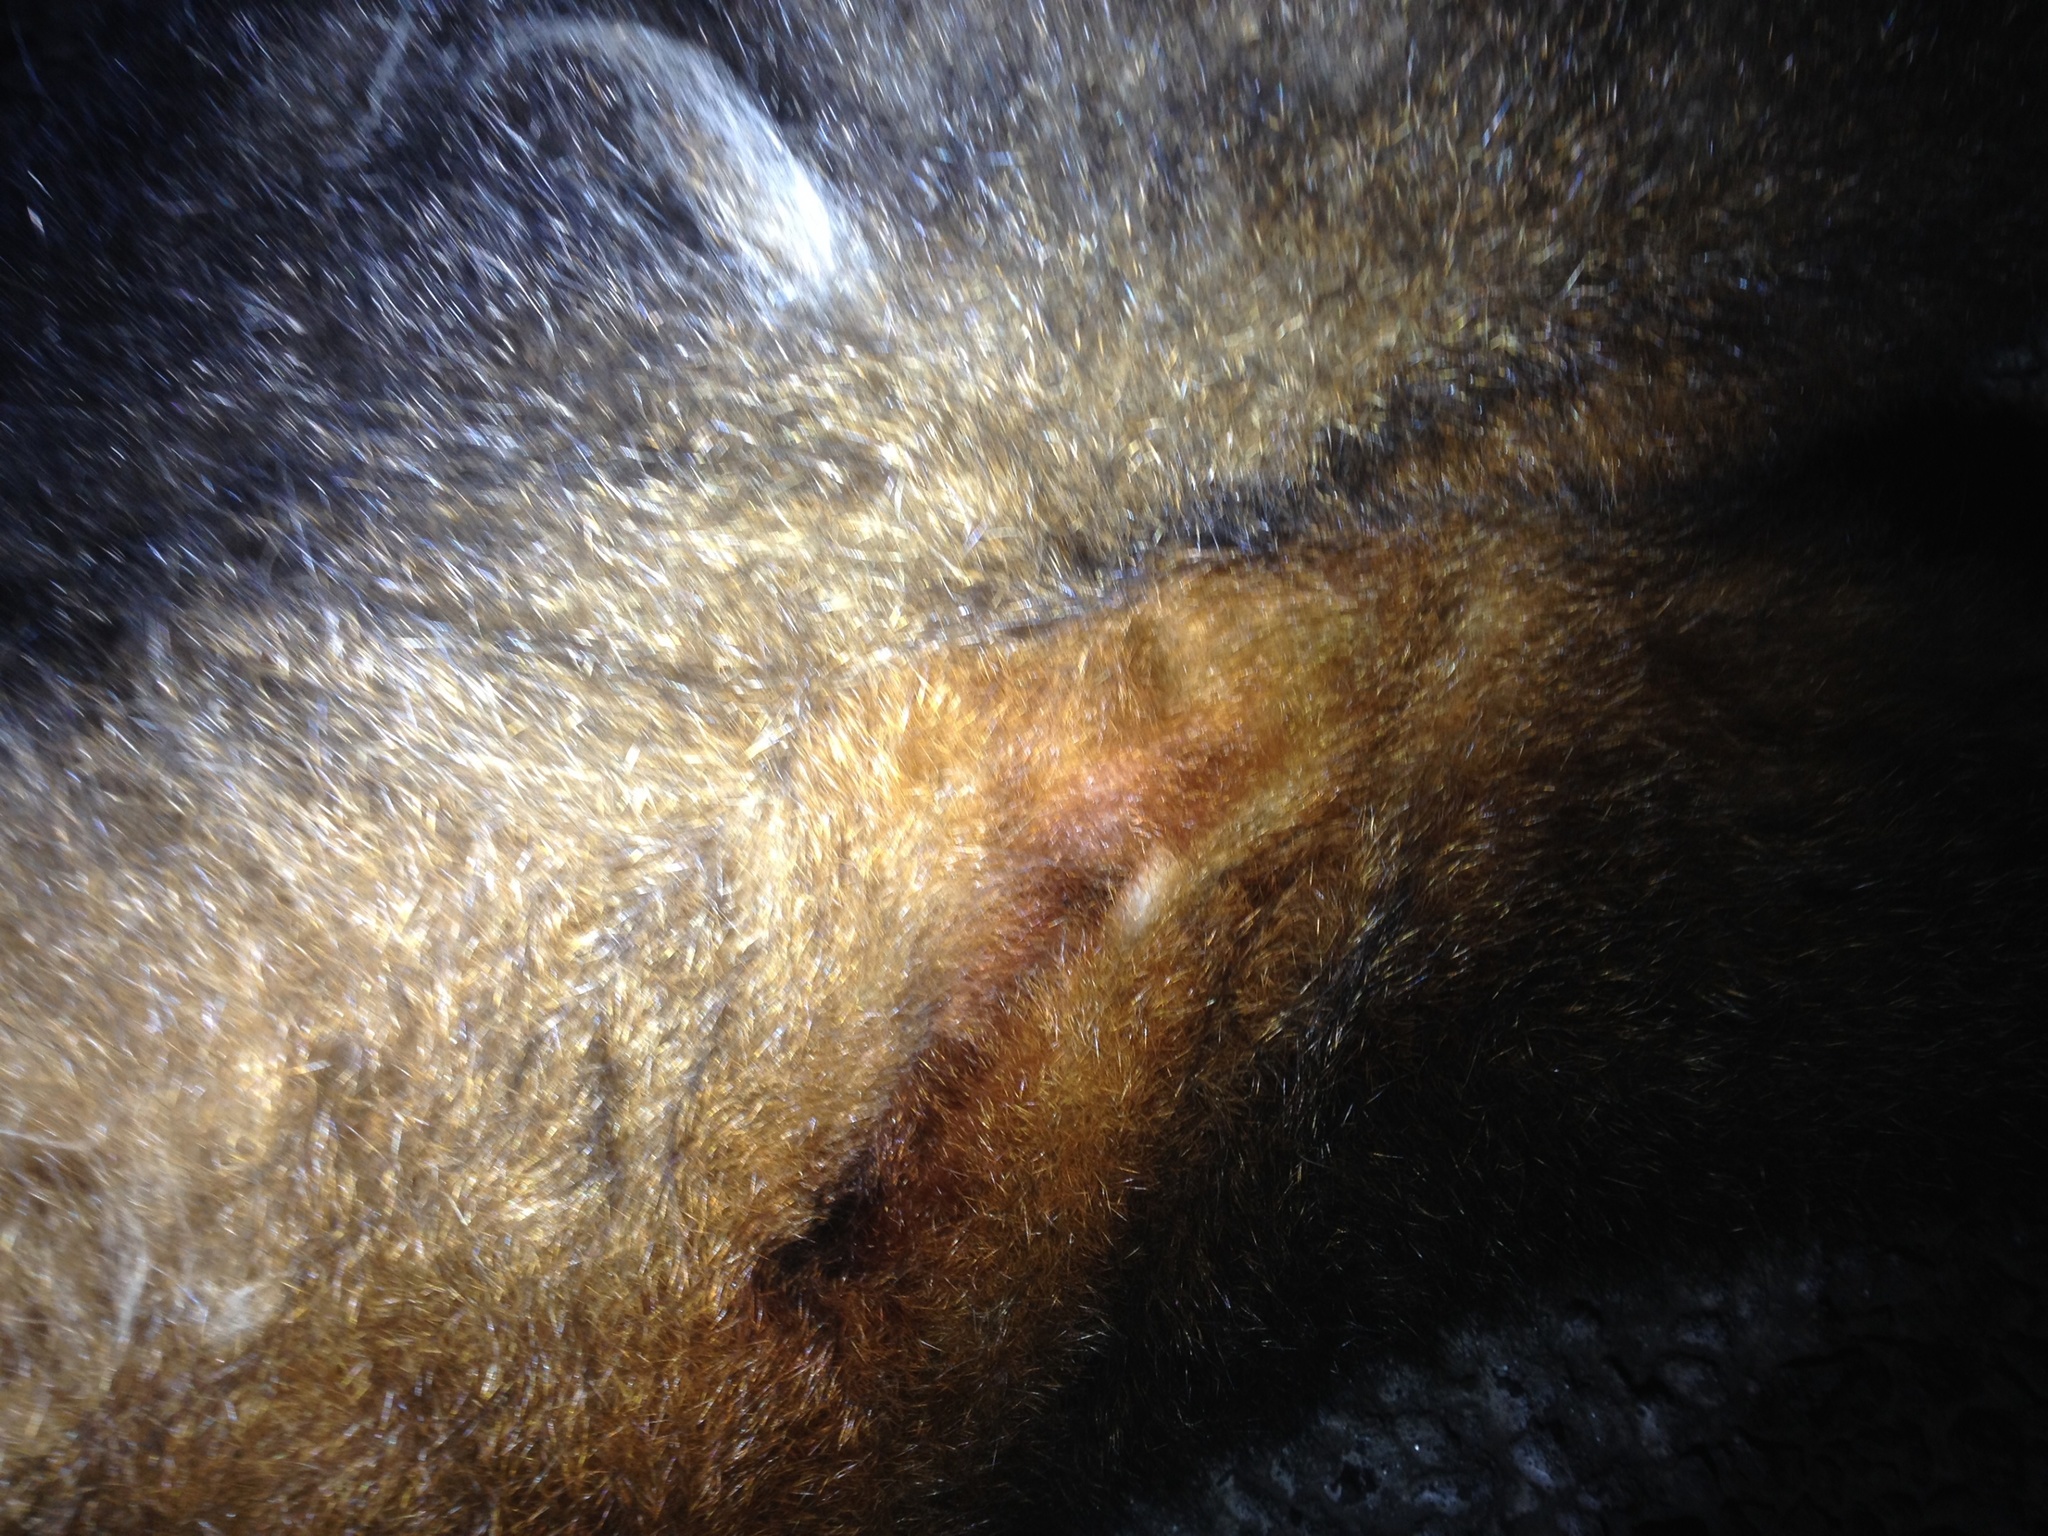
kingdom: Animalia
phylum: Chordata
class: Mammalia
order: Diprotodontia
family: Phalangeridae
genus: Trichosurus
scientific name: Trichosurus vulpecula
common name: Common brushtail
